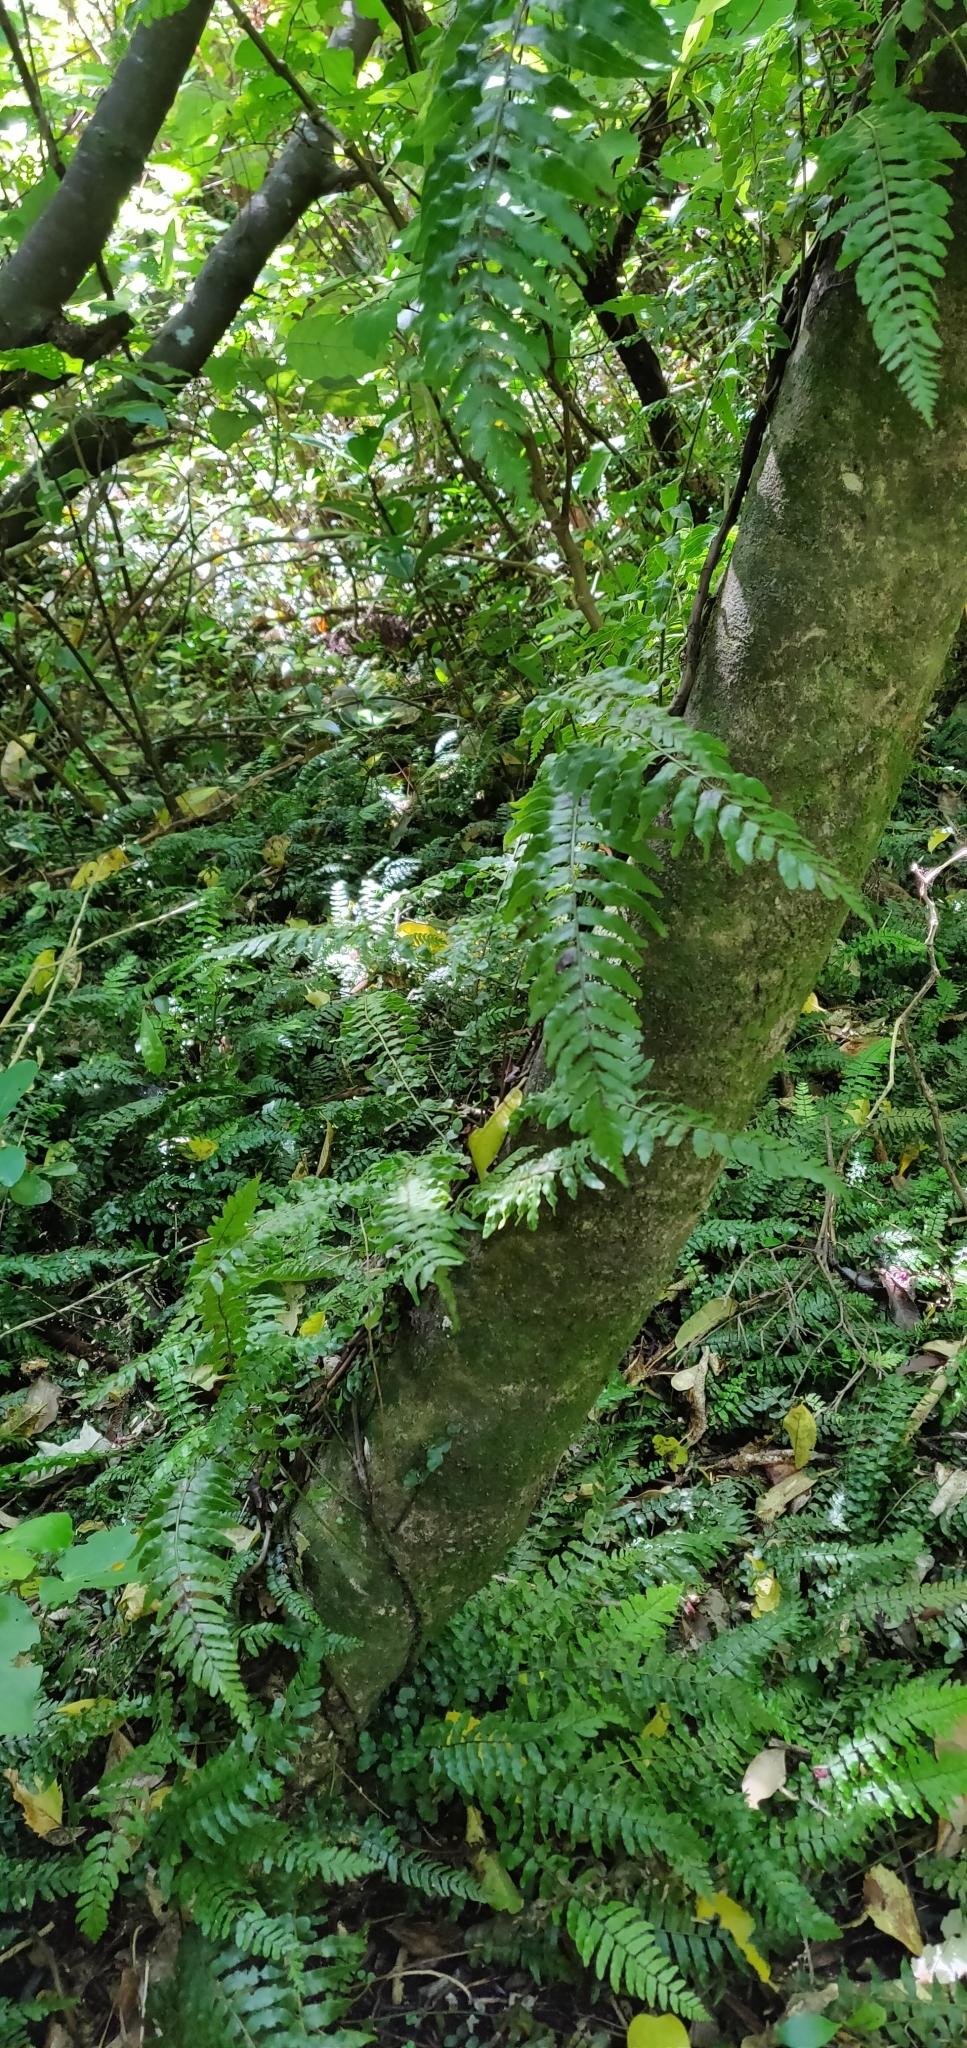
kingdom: Plantae
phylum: Tracheophyta
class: Polypodiopsida
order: Polypodiales
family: Blechnaceae
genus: Icarus
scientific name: Icarus filiformis
